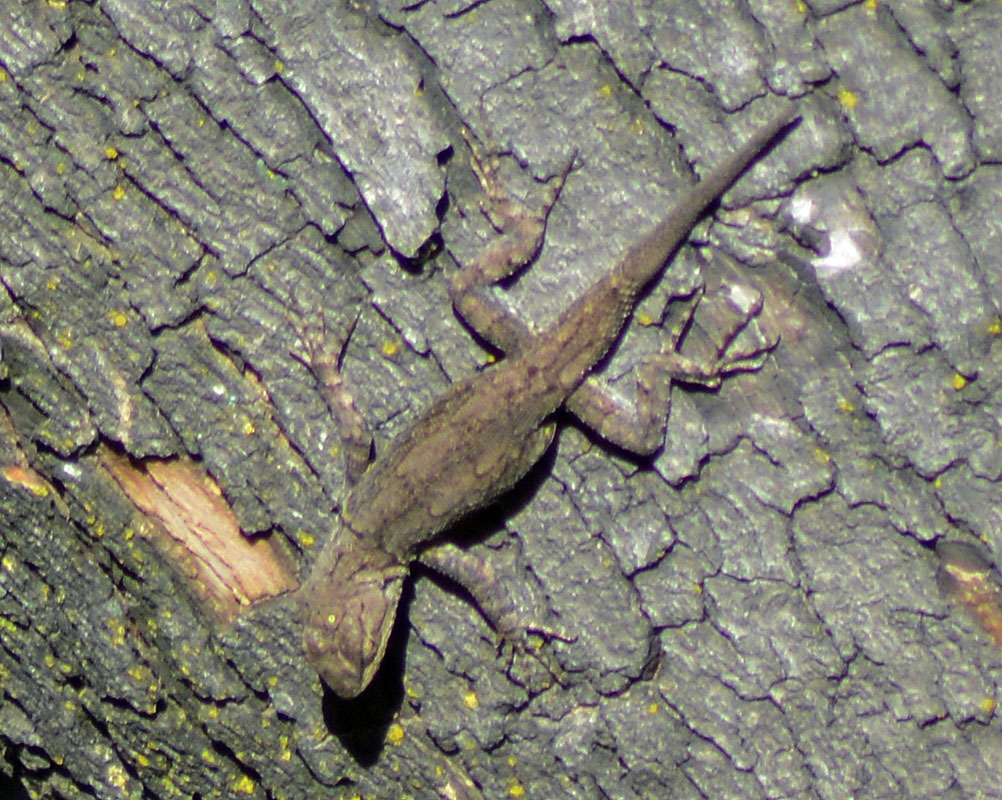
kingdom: Animalia
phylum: Chordata
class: Squamata
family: Phrynosomatidae
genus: Sceloporus
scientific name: Sceloporus grammicus
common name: Mesquite lizard
